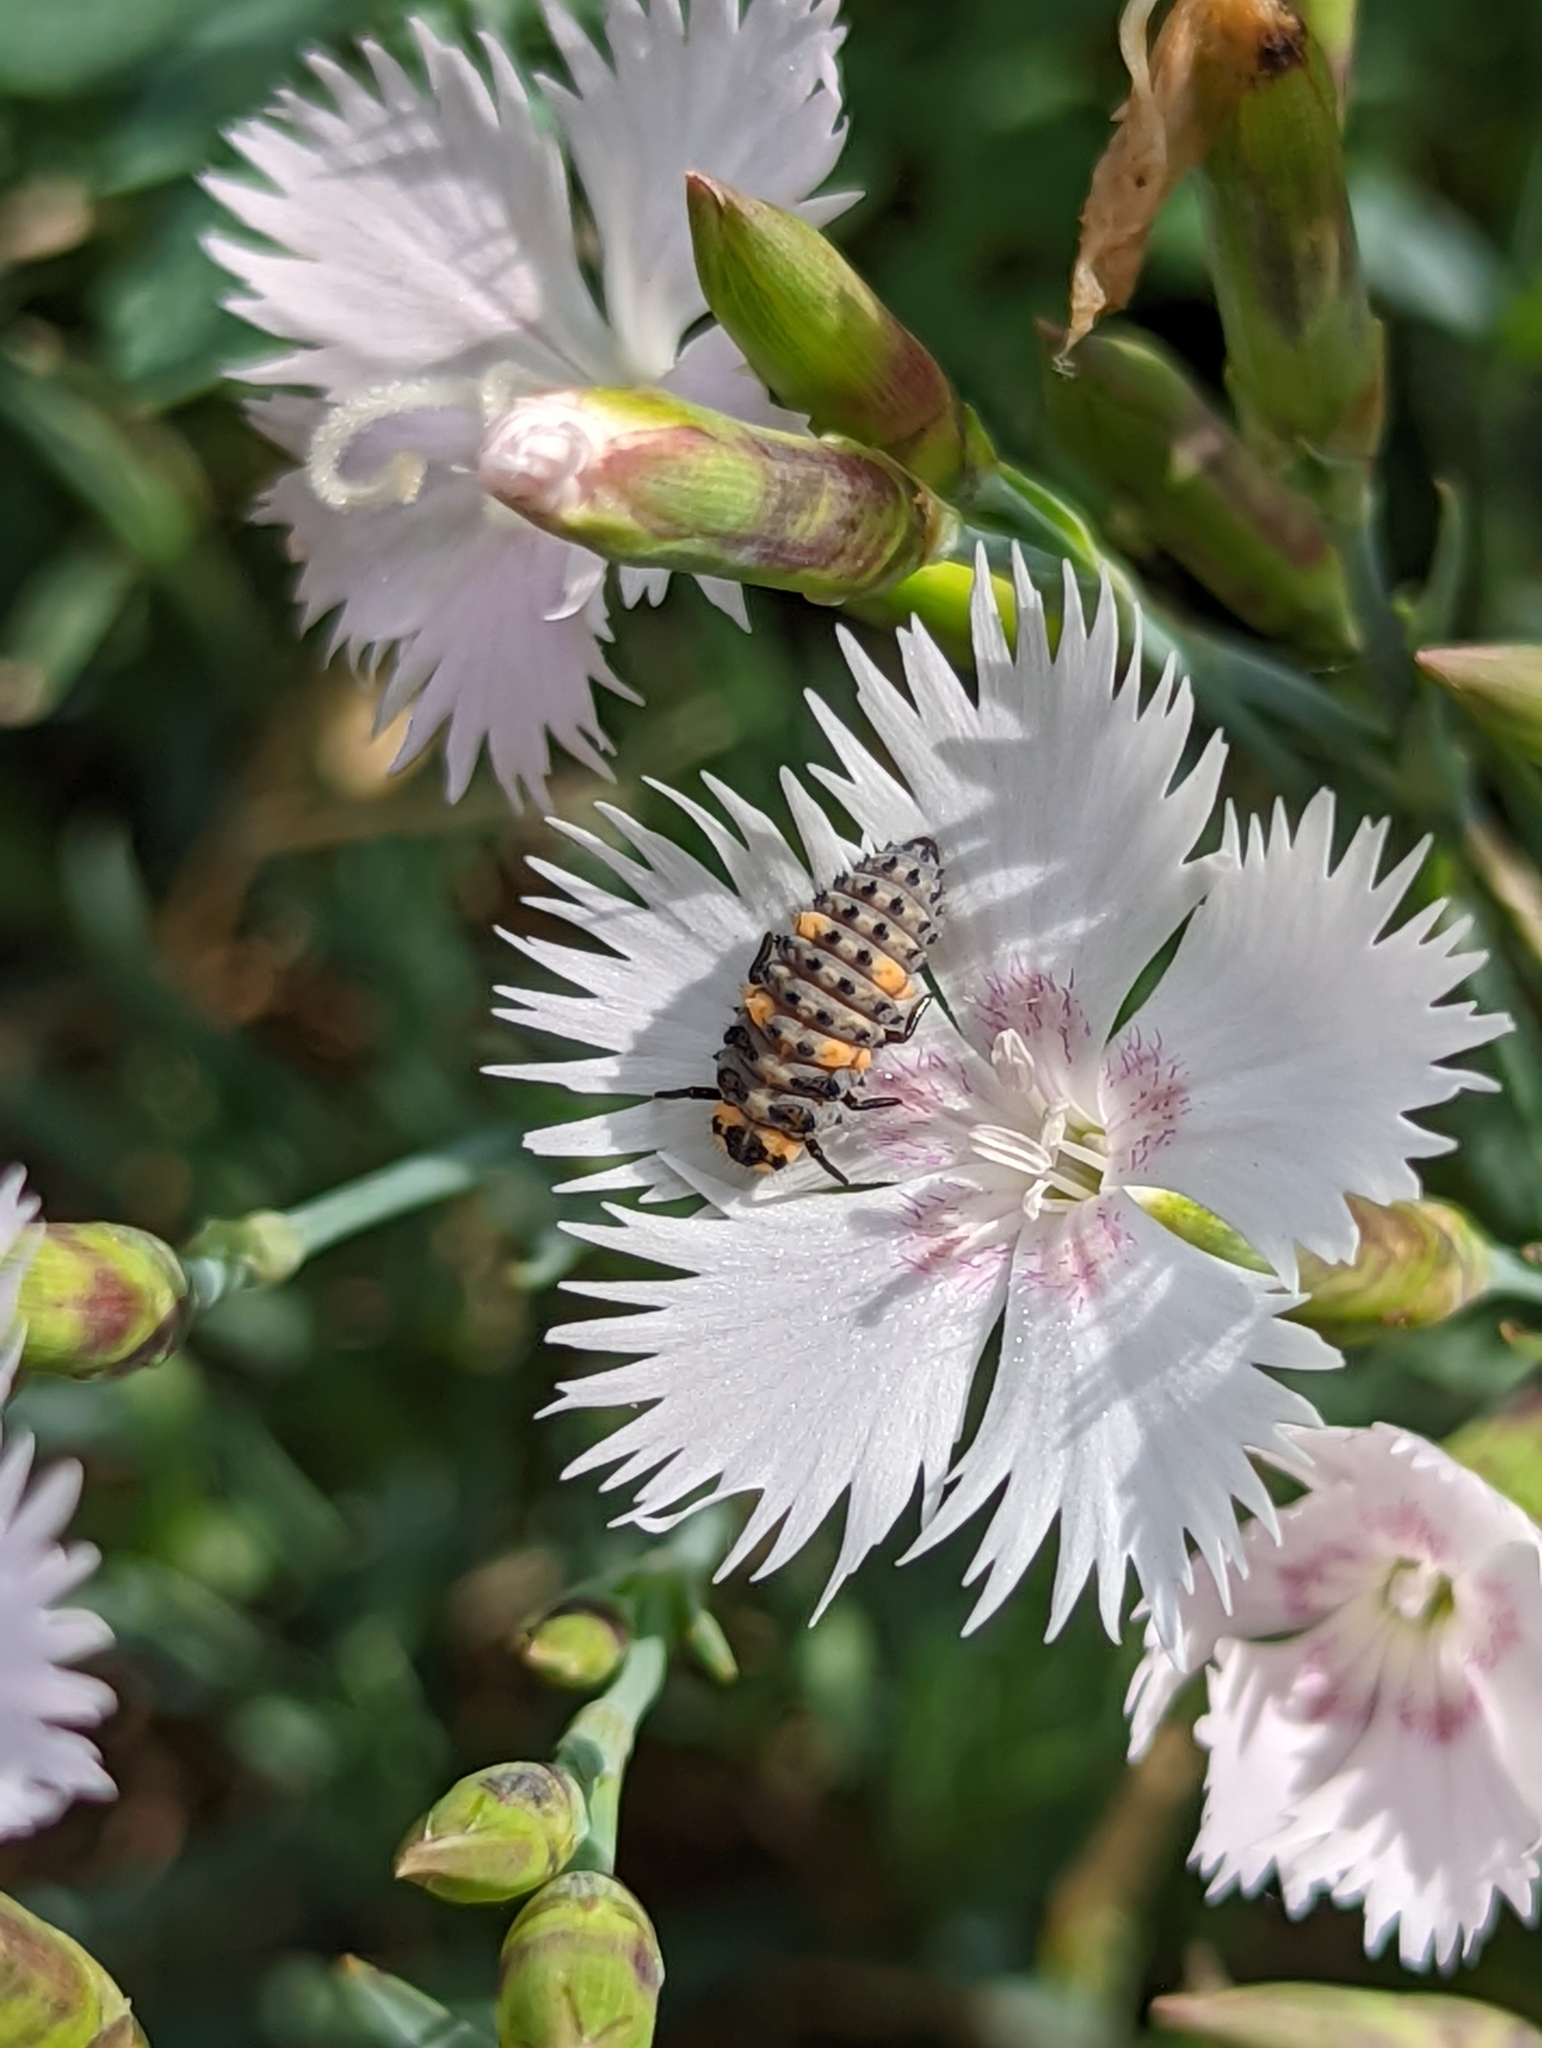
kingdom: Animalia
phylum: Arthropoda
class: Insecta
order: Coleoptera
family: Coccinellidae
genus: Coccinella
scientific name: Coccinella septempunctata
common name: Sevenspotted lady beetle
